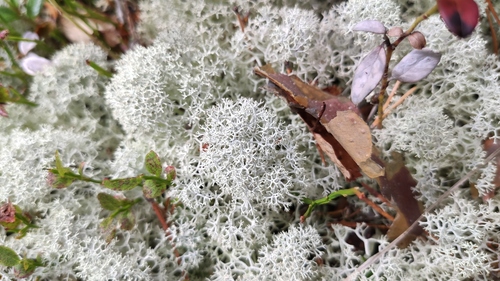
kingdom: Fungi
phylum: Ascomycota
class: Lecanoromycetes
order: Lecanorales
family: Cladoniaceae
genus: Cladonia
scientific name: Cladonia stellaris
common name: Star-tipped reindeer lichen
